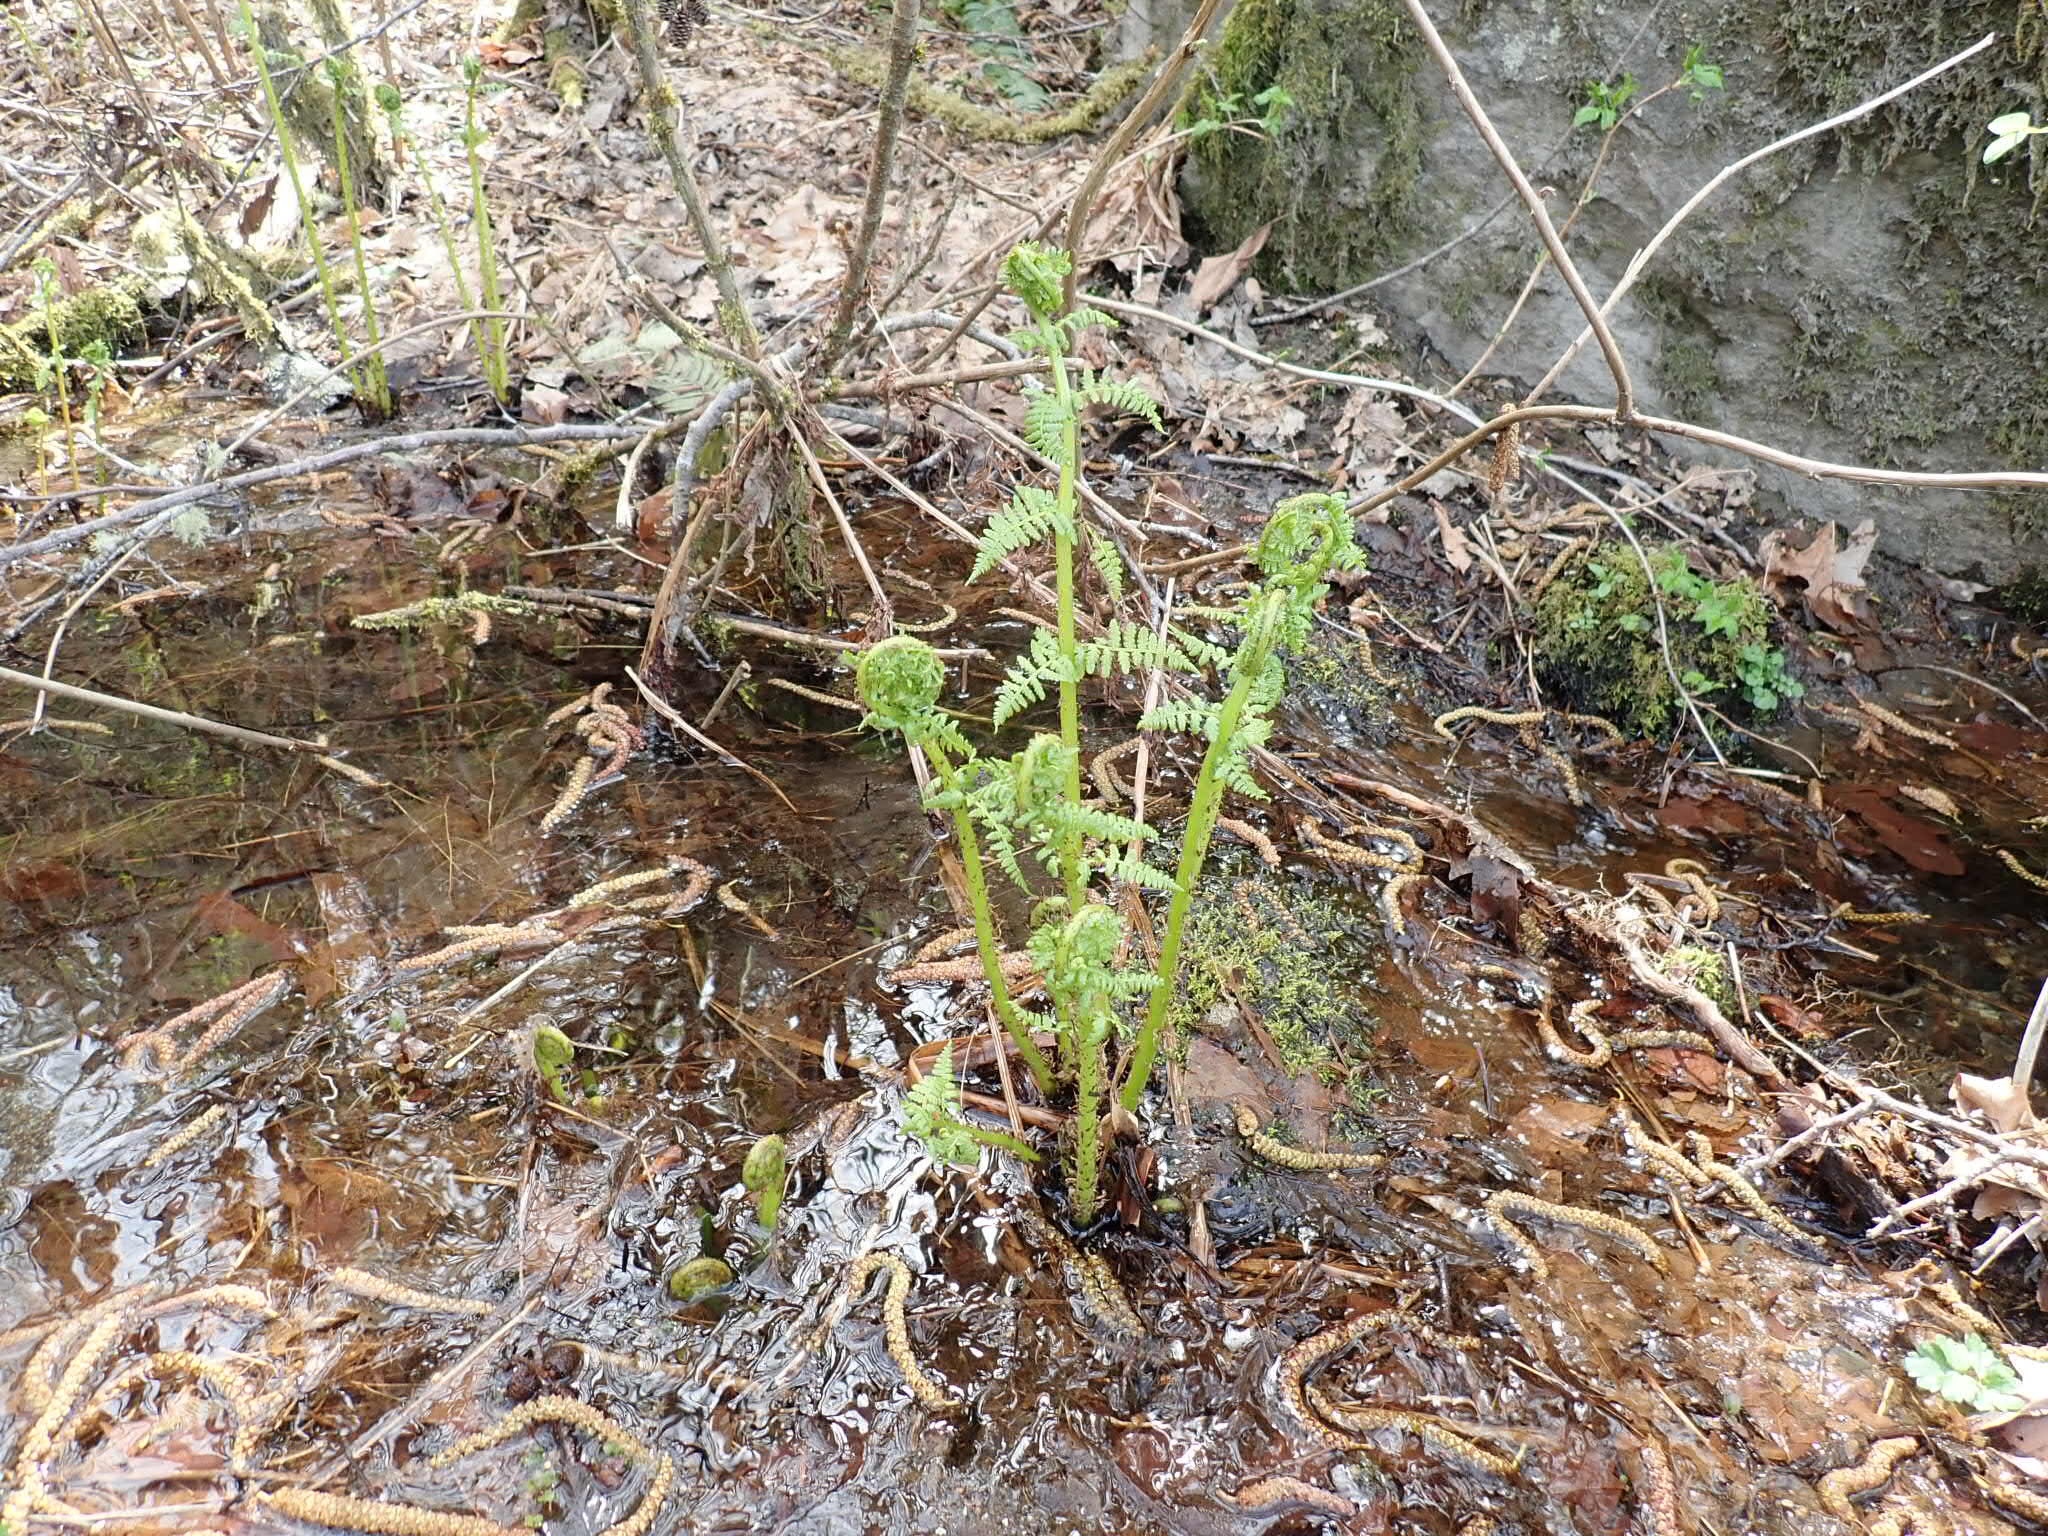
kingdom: Plantae
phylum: Tracheophyta
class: Polypodiopsida
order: Polypodiales
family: Athyriaceae
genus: Athyrium
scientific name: Athyrium cyclosorum
